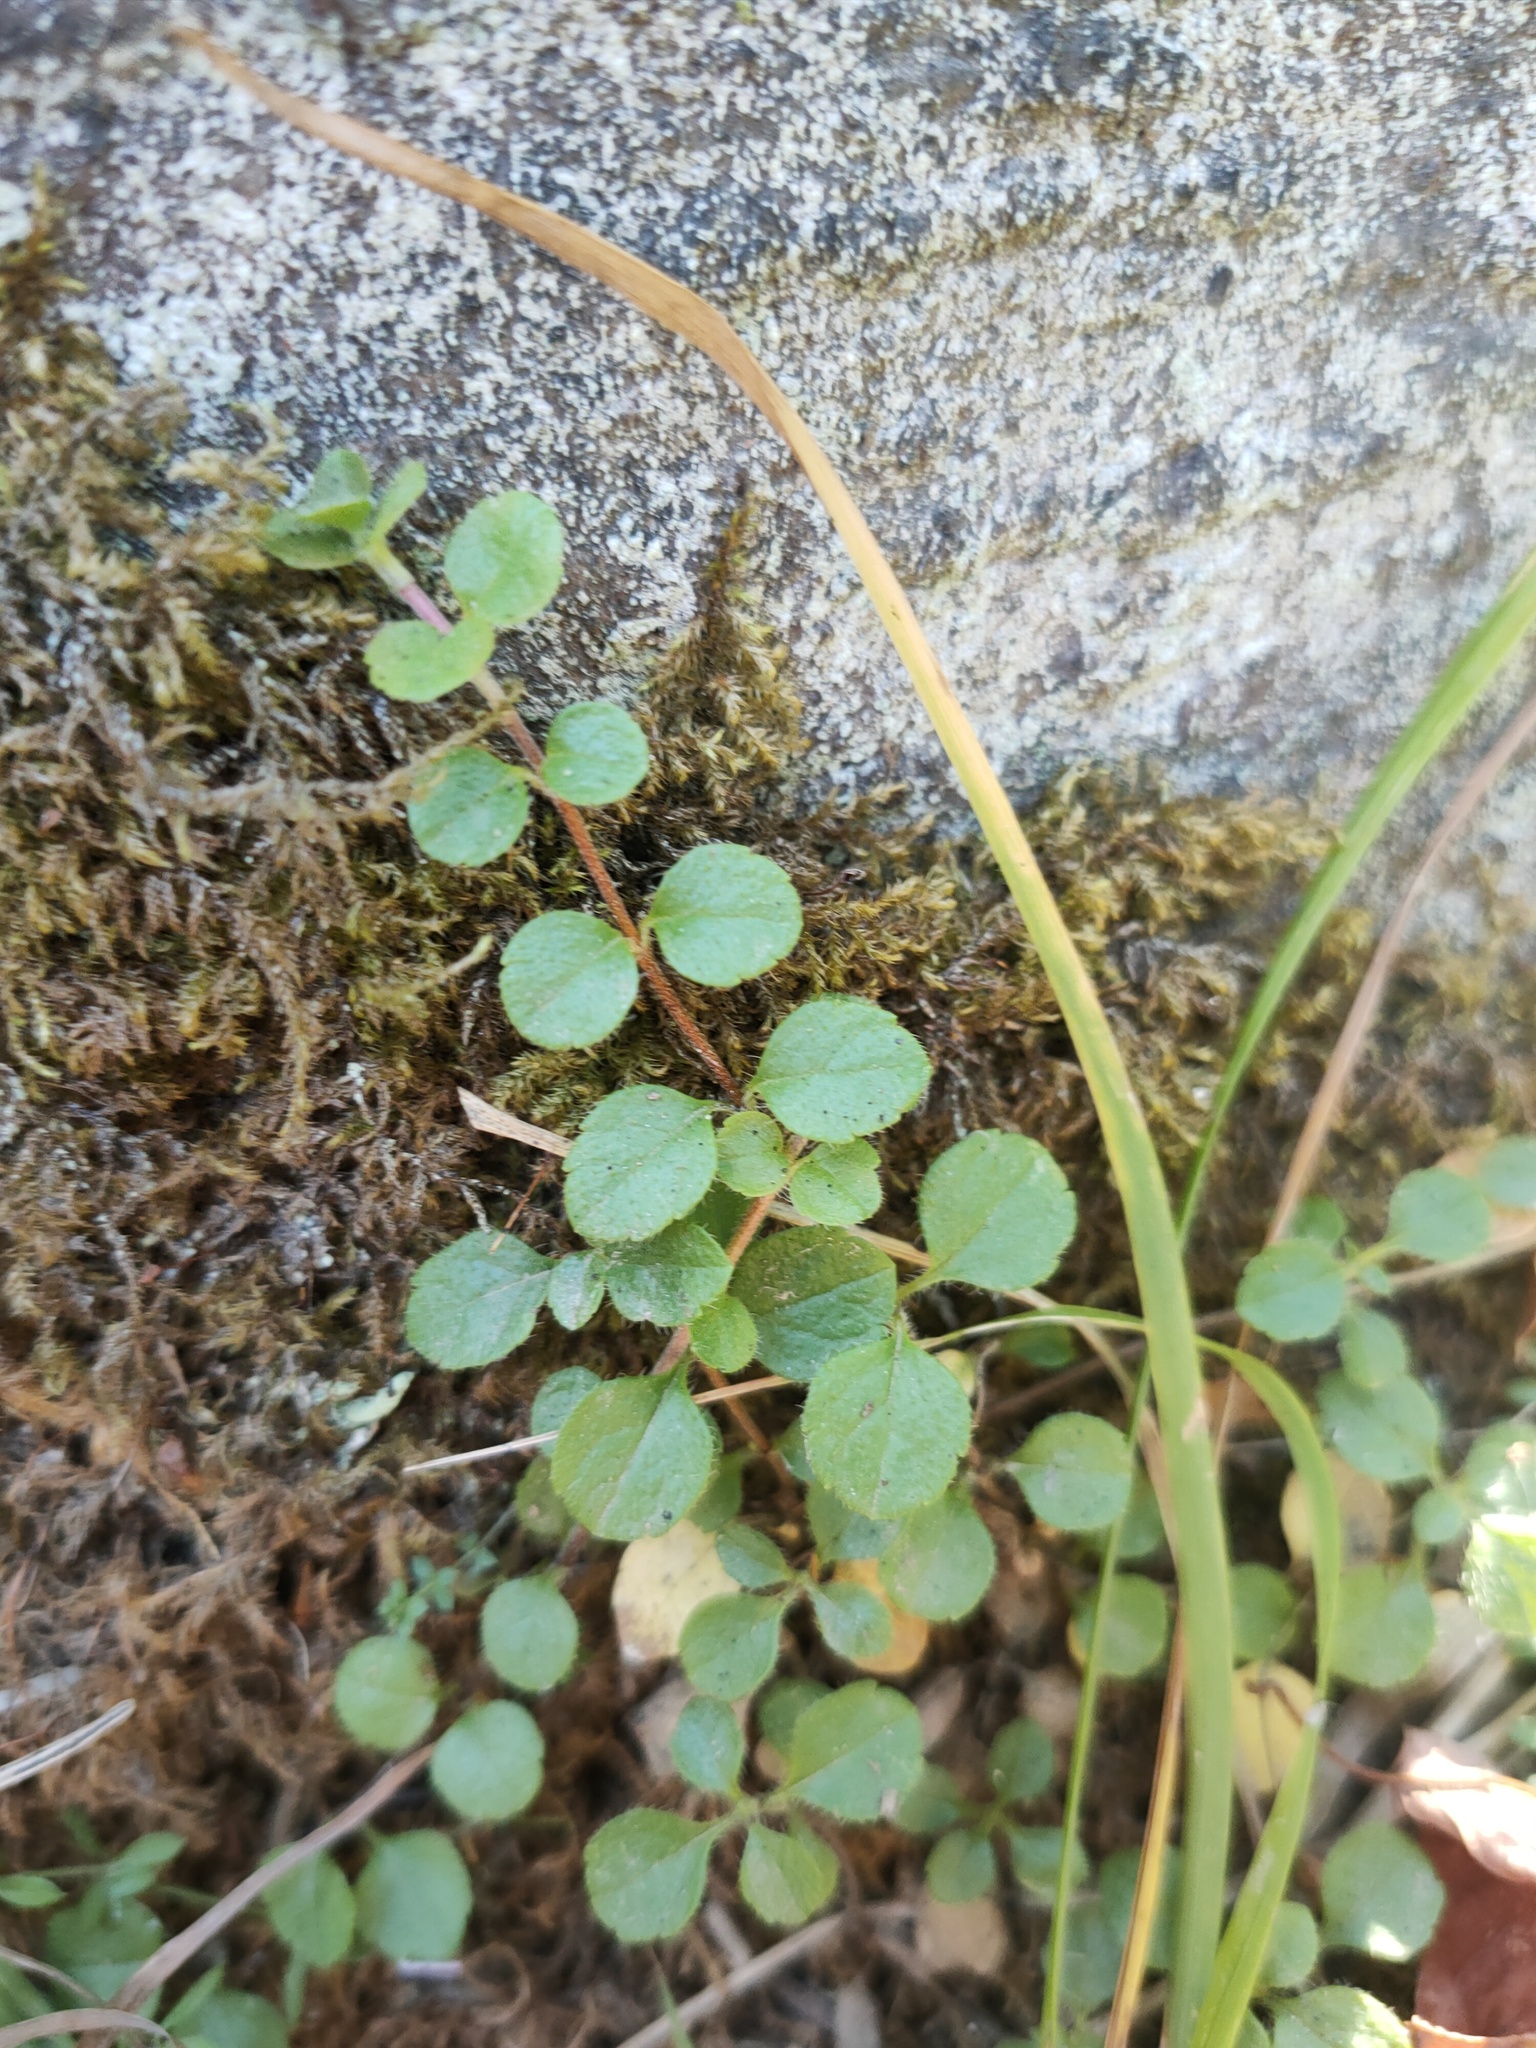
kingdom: Plantae
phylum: Tracheophyta
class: Magnoliopsida
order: Dipsacales
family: Caprifoliaceae
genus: Linnaea
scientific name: Linnaea borealis
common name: Twinflower
